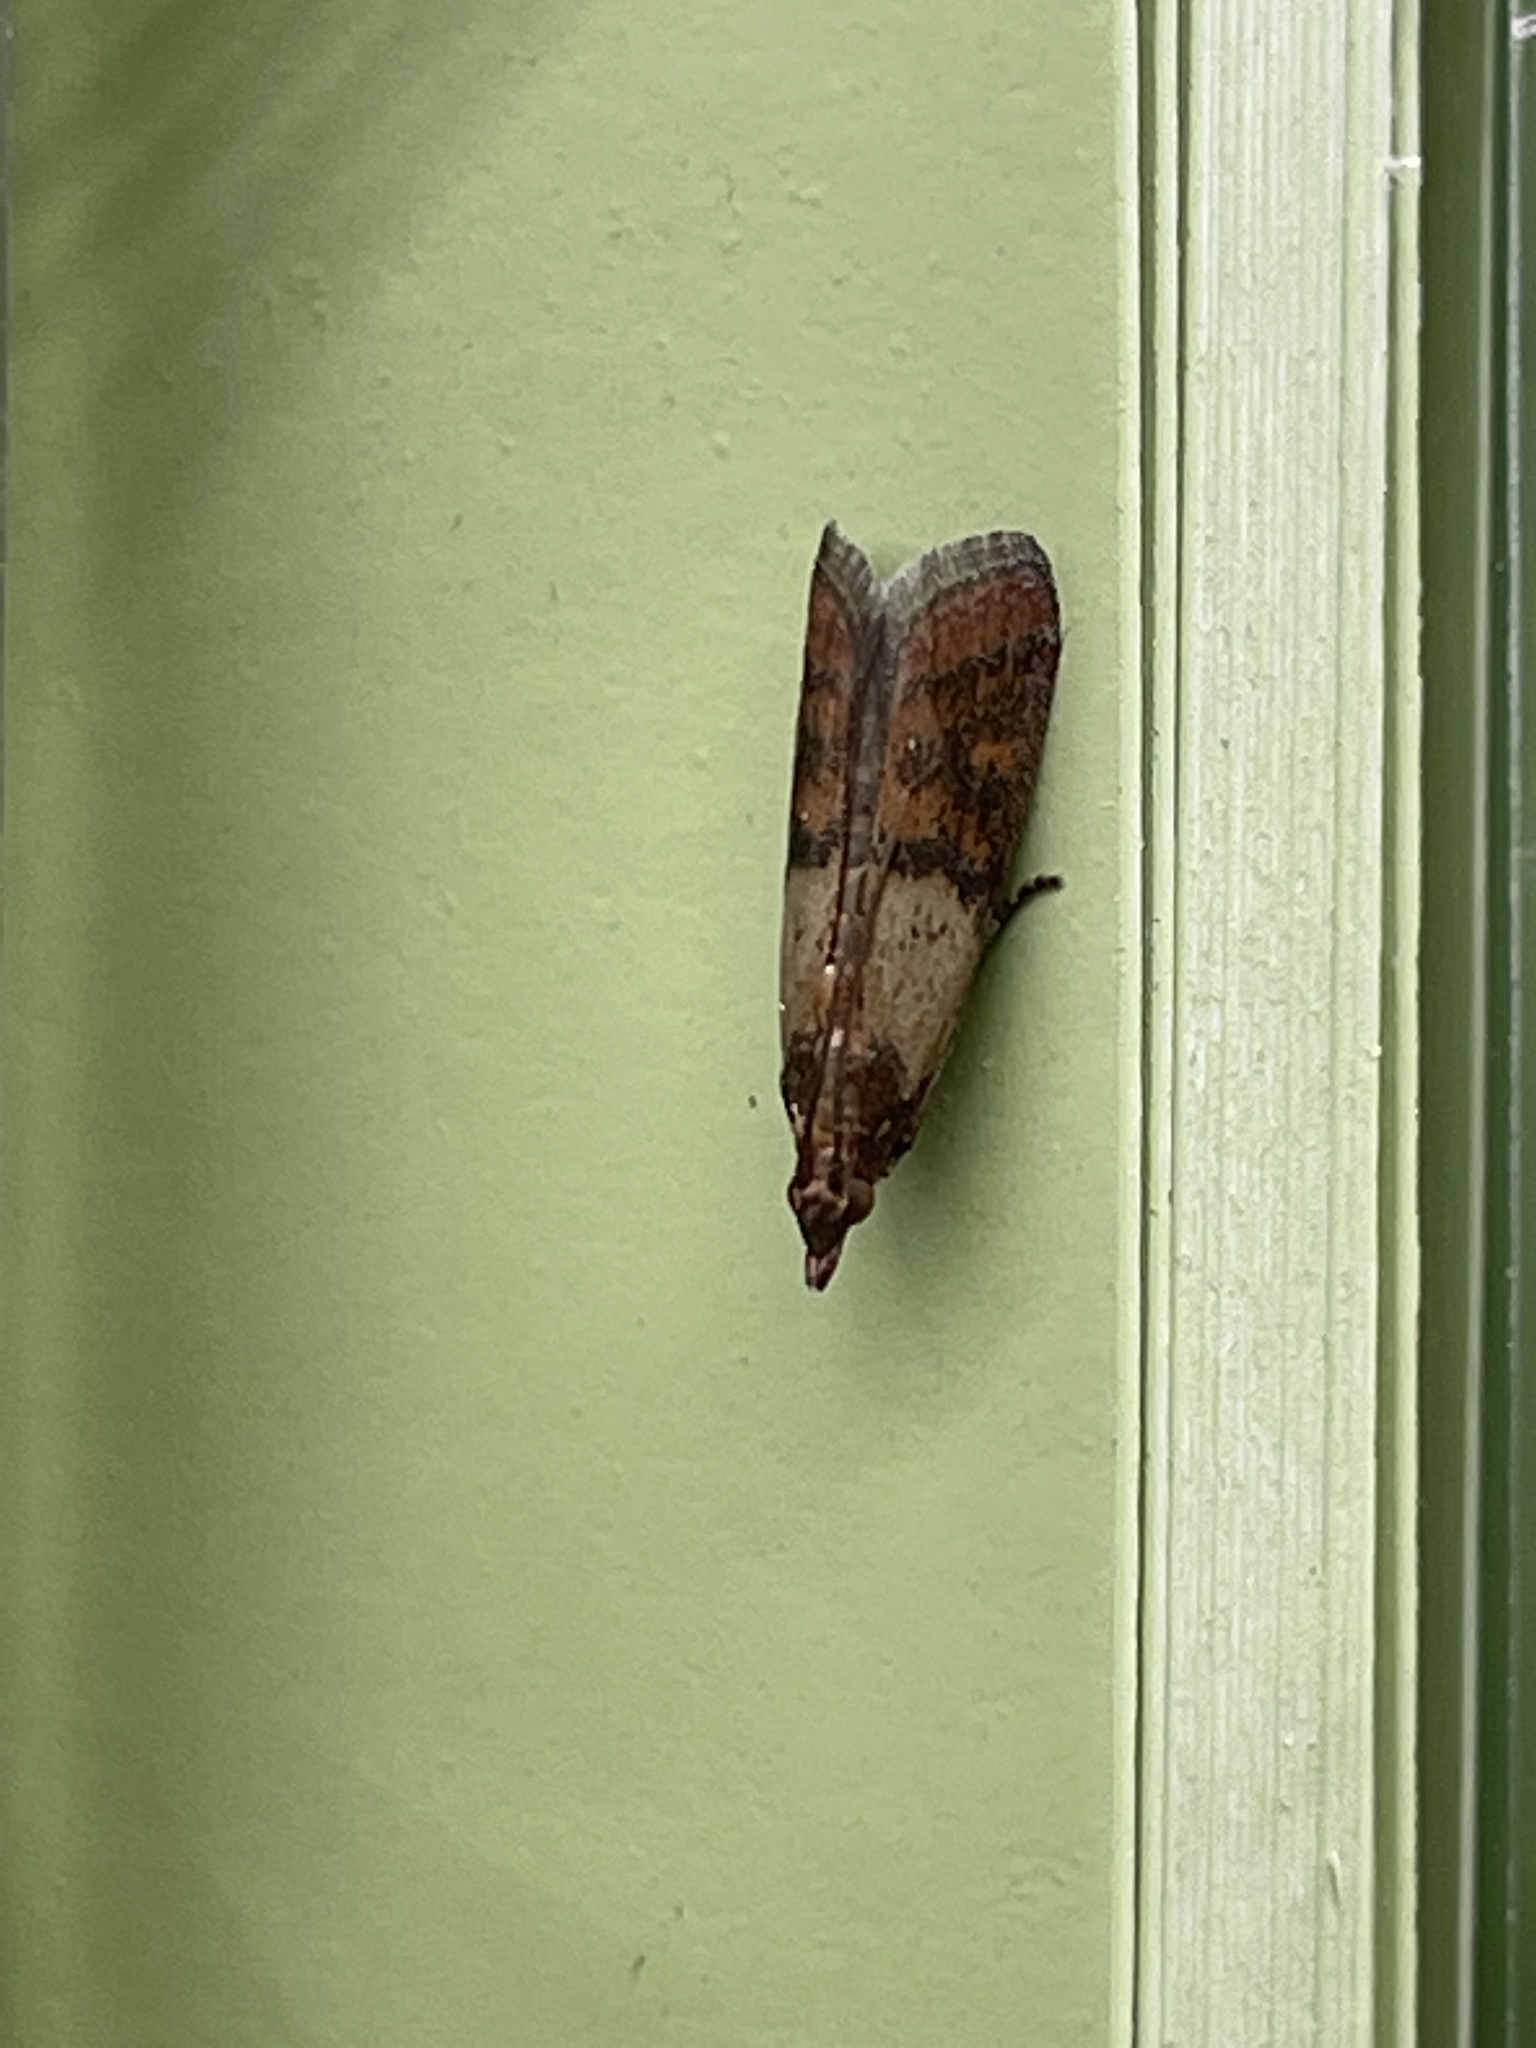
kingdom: Animalia
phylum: Arthropoda
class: Insecta
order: Lepidoptera
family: Pyralidae
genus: Plodia
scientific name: Plodia interpunctella
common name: Indian meal moth
